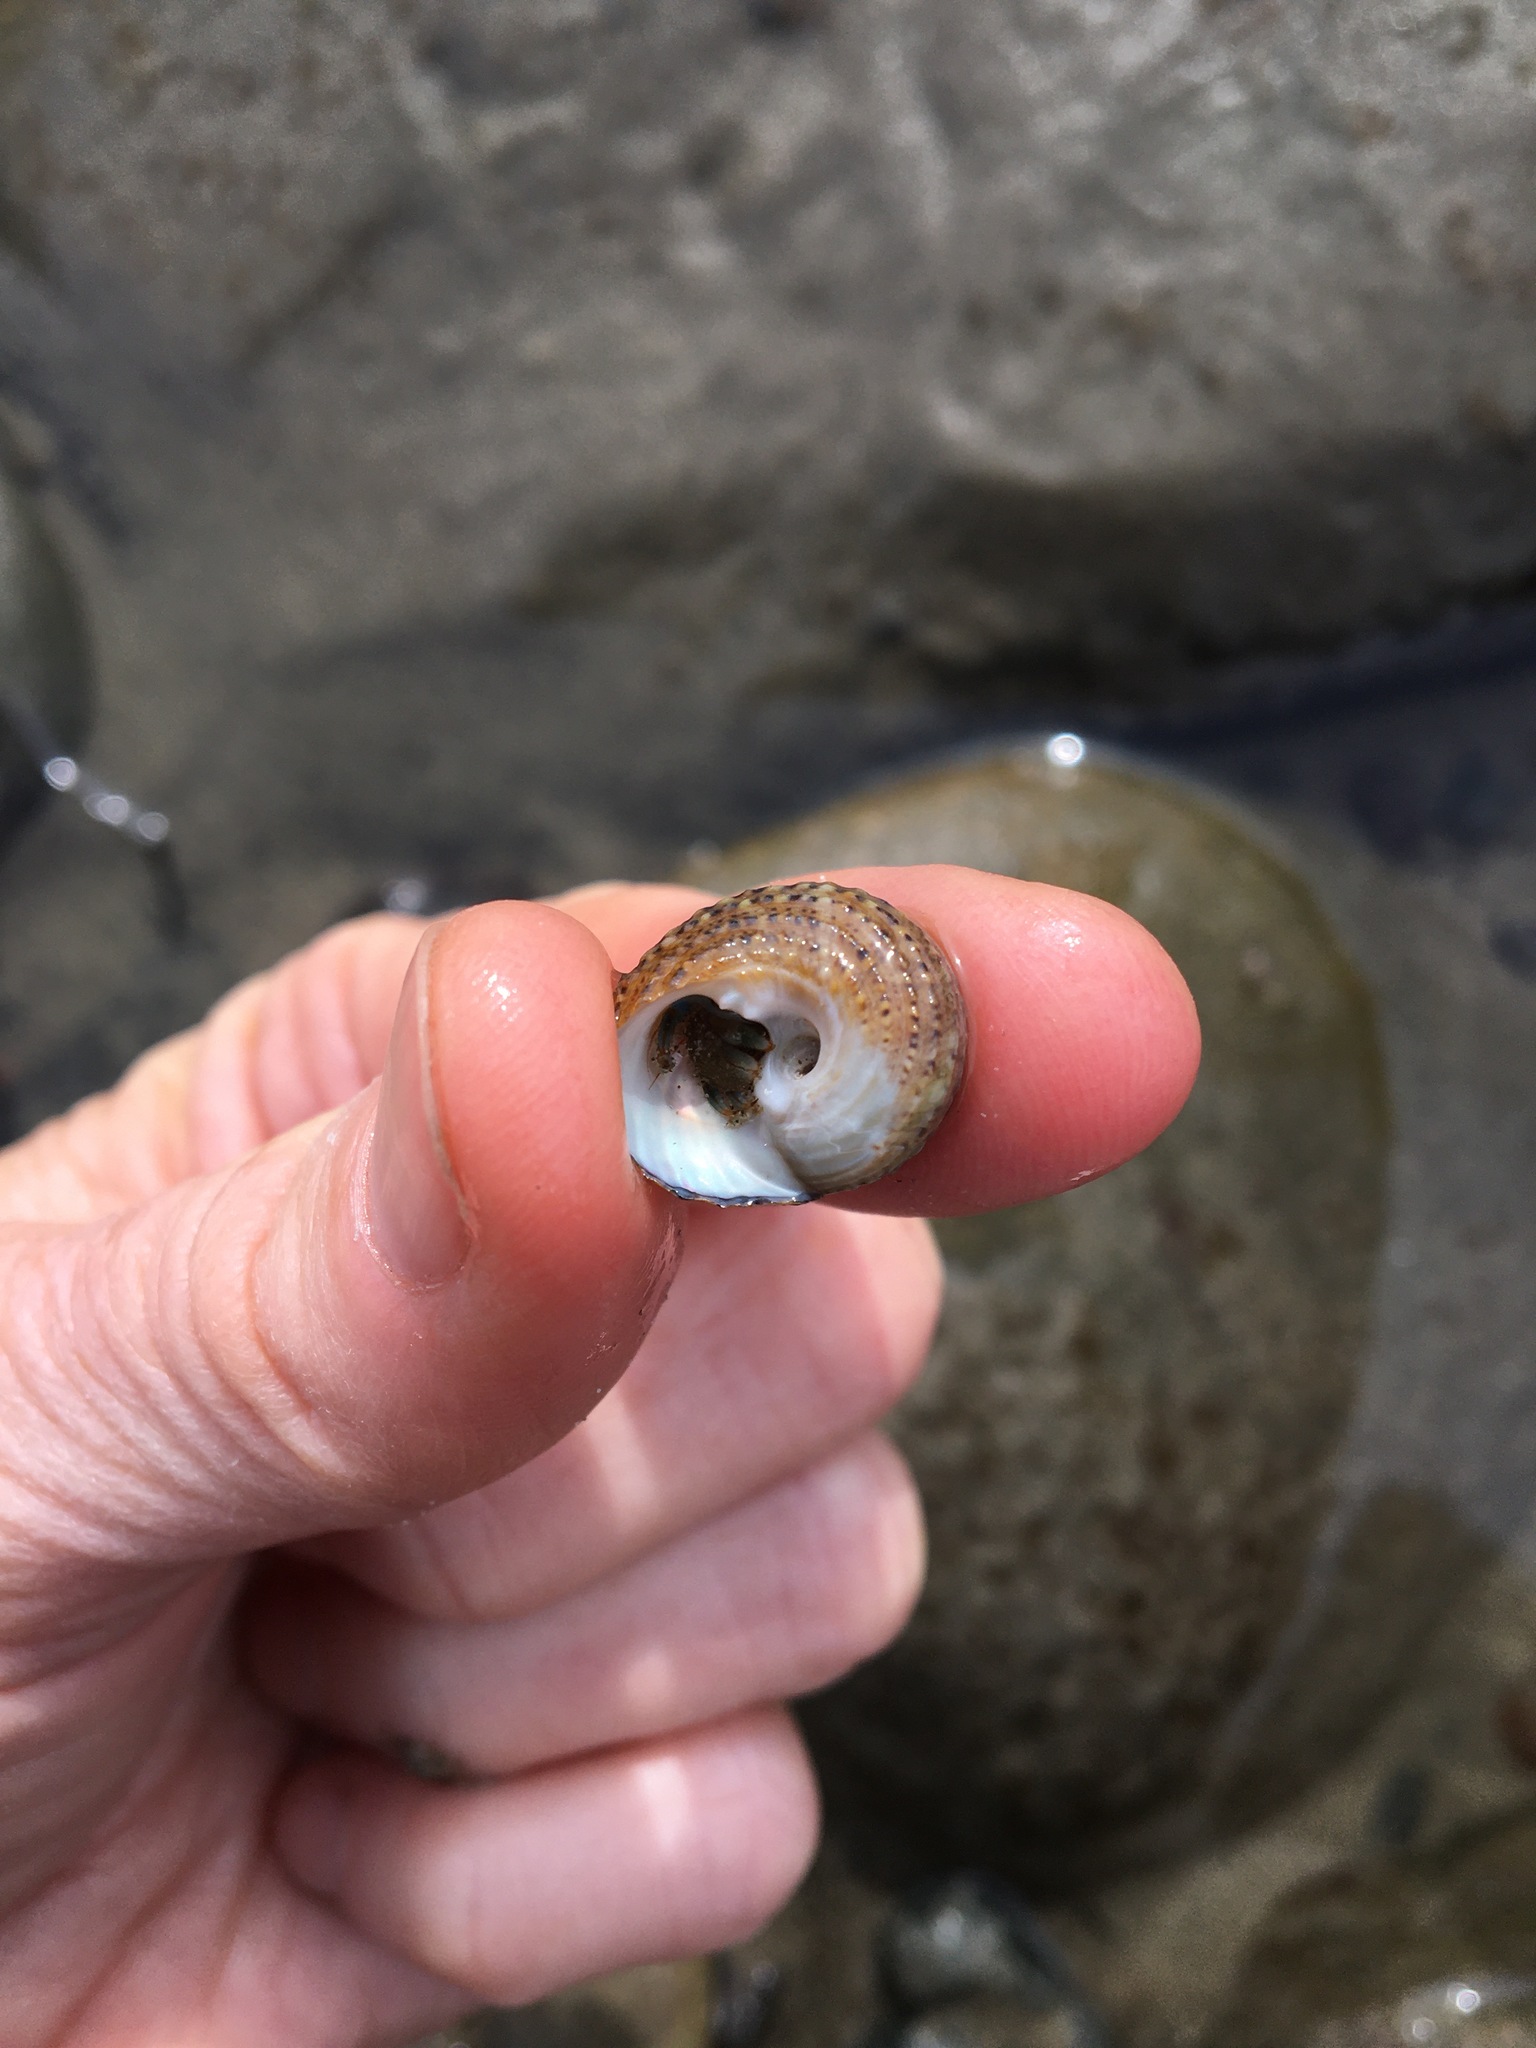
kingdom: Animalia
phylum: Mollusca
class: Gastropoda
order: Trochida
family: Tegulidae
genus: Tegula
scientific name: Tegula eiseni
